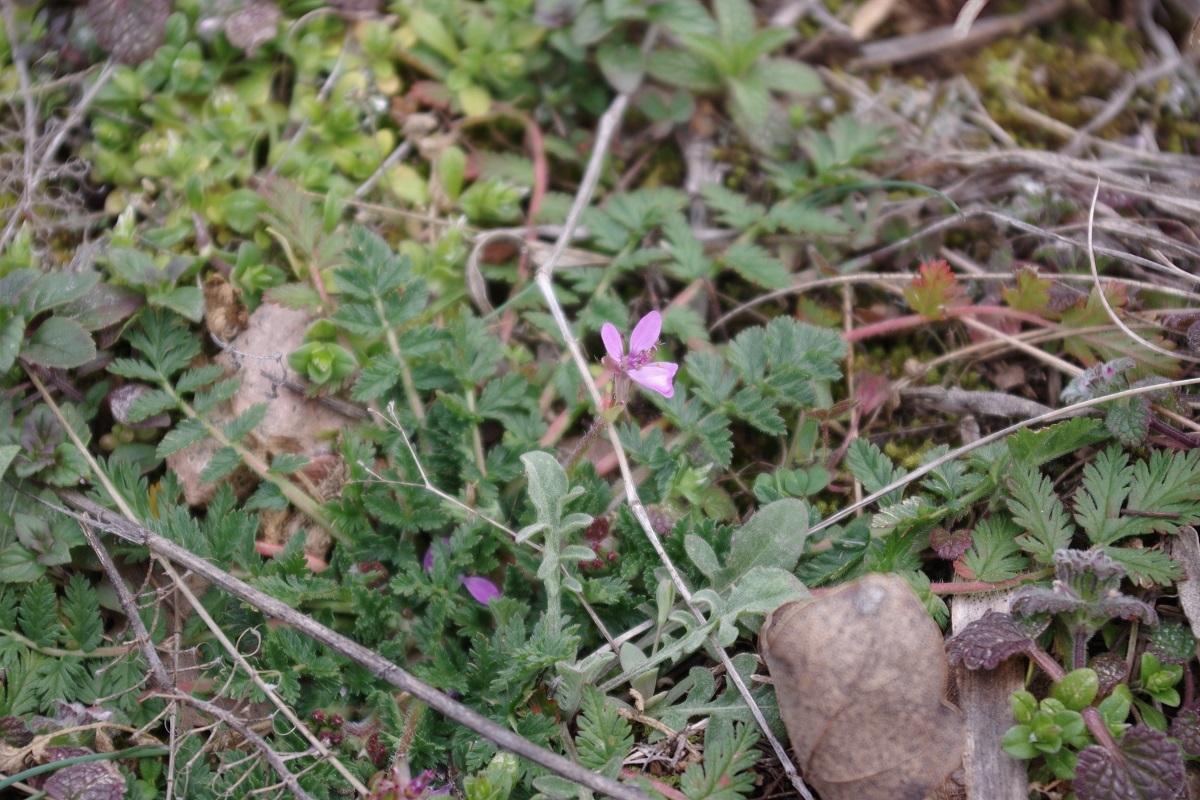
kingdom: Plantae
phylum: Tracheophyta
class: Magnoliopsida
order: Geraniales
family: Geraniaceae
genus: Erodium
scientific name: Erodium
